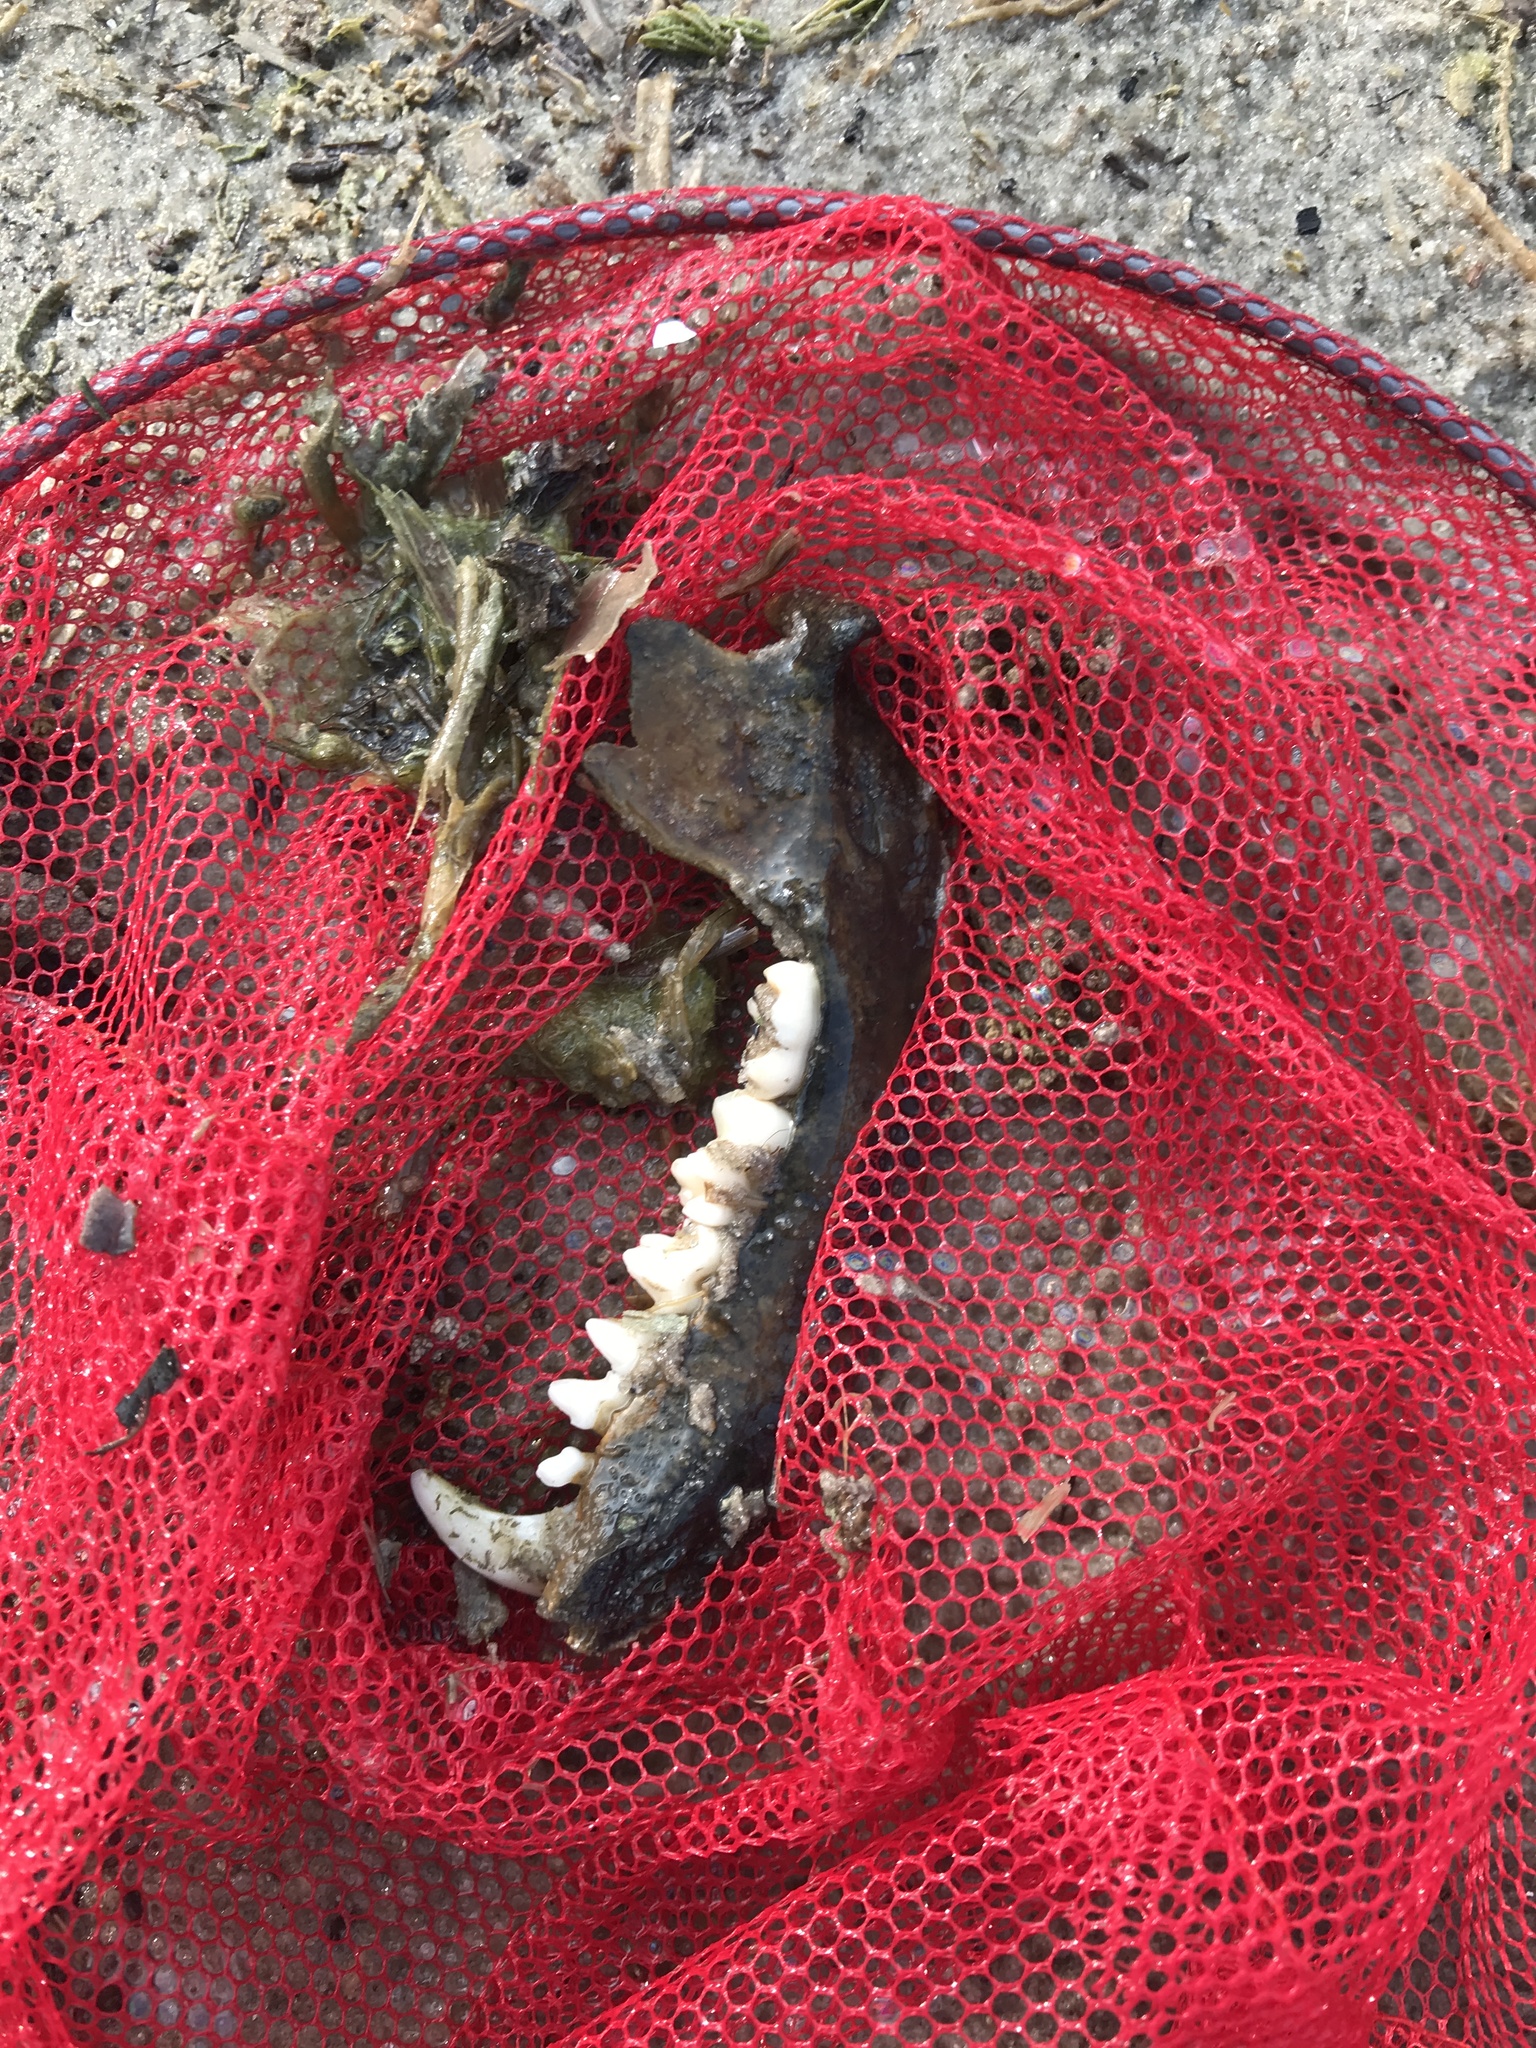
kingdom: Animalia
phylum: Chordata
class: Mammalia
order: Carnivora
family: Procyonidae
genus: Procyon
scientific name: Procyon lotor
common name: Raccoon
